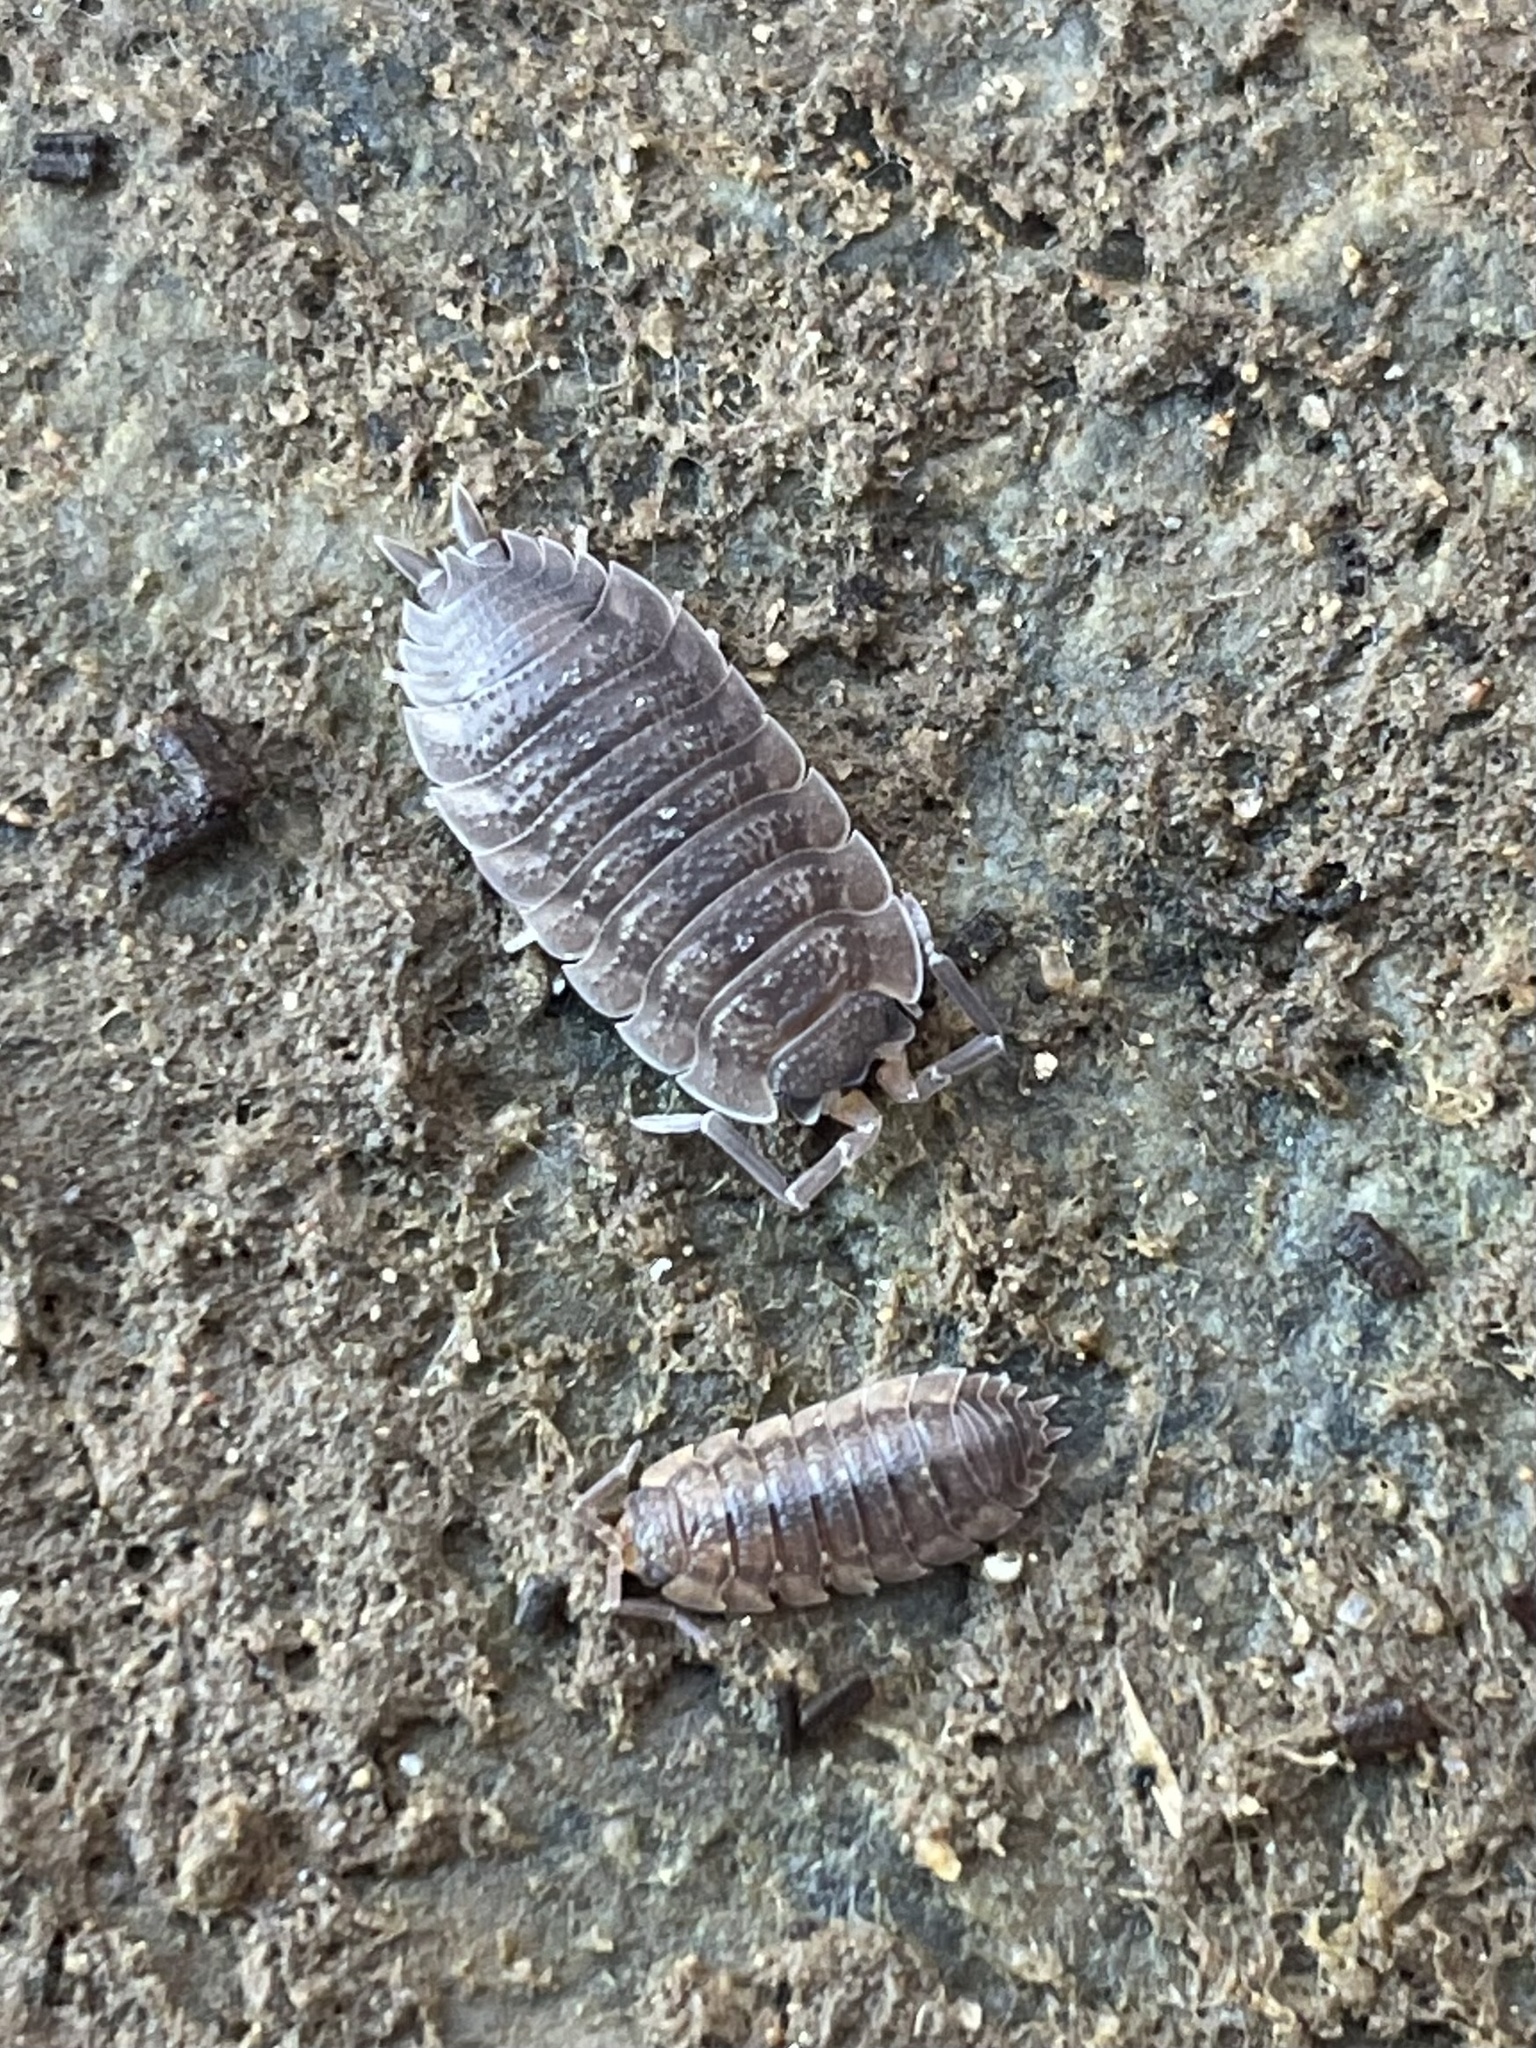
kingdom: Animalia
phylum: Arthropoda
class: Malacostraca
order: Isopoda
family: Porcellionidae
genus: Porcellio
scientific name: Porcellio scaber
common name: Common rough woodlouse
